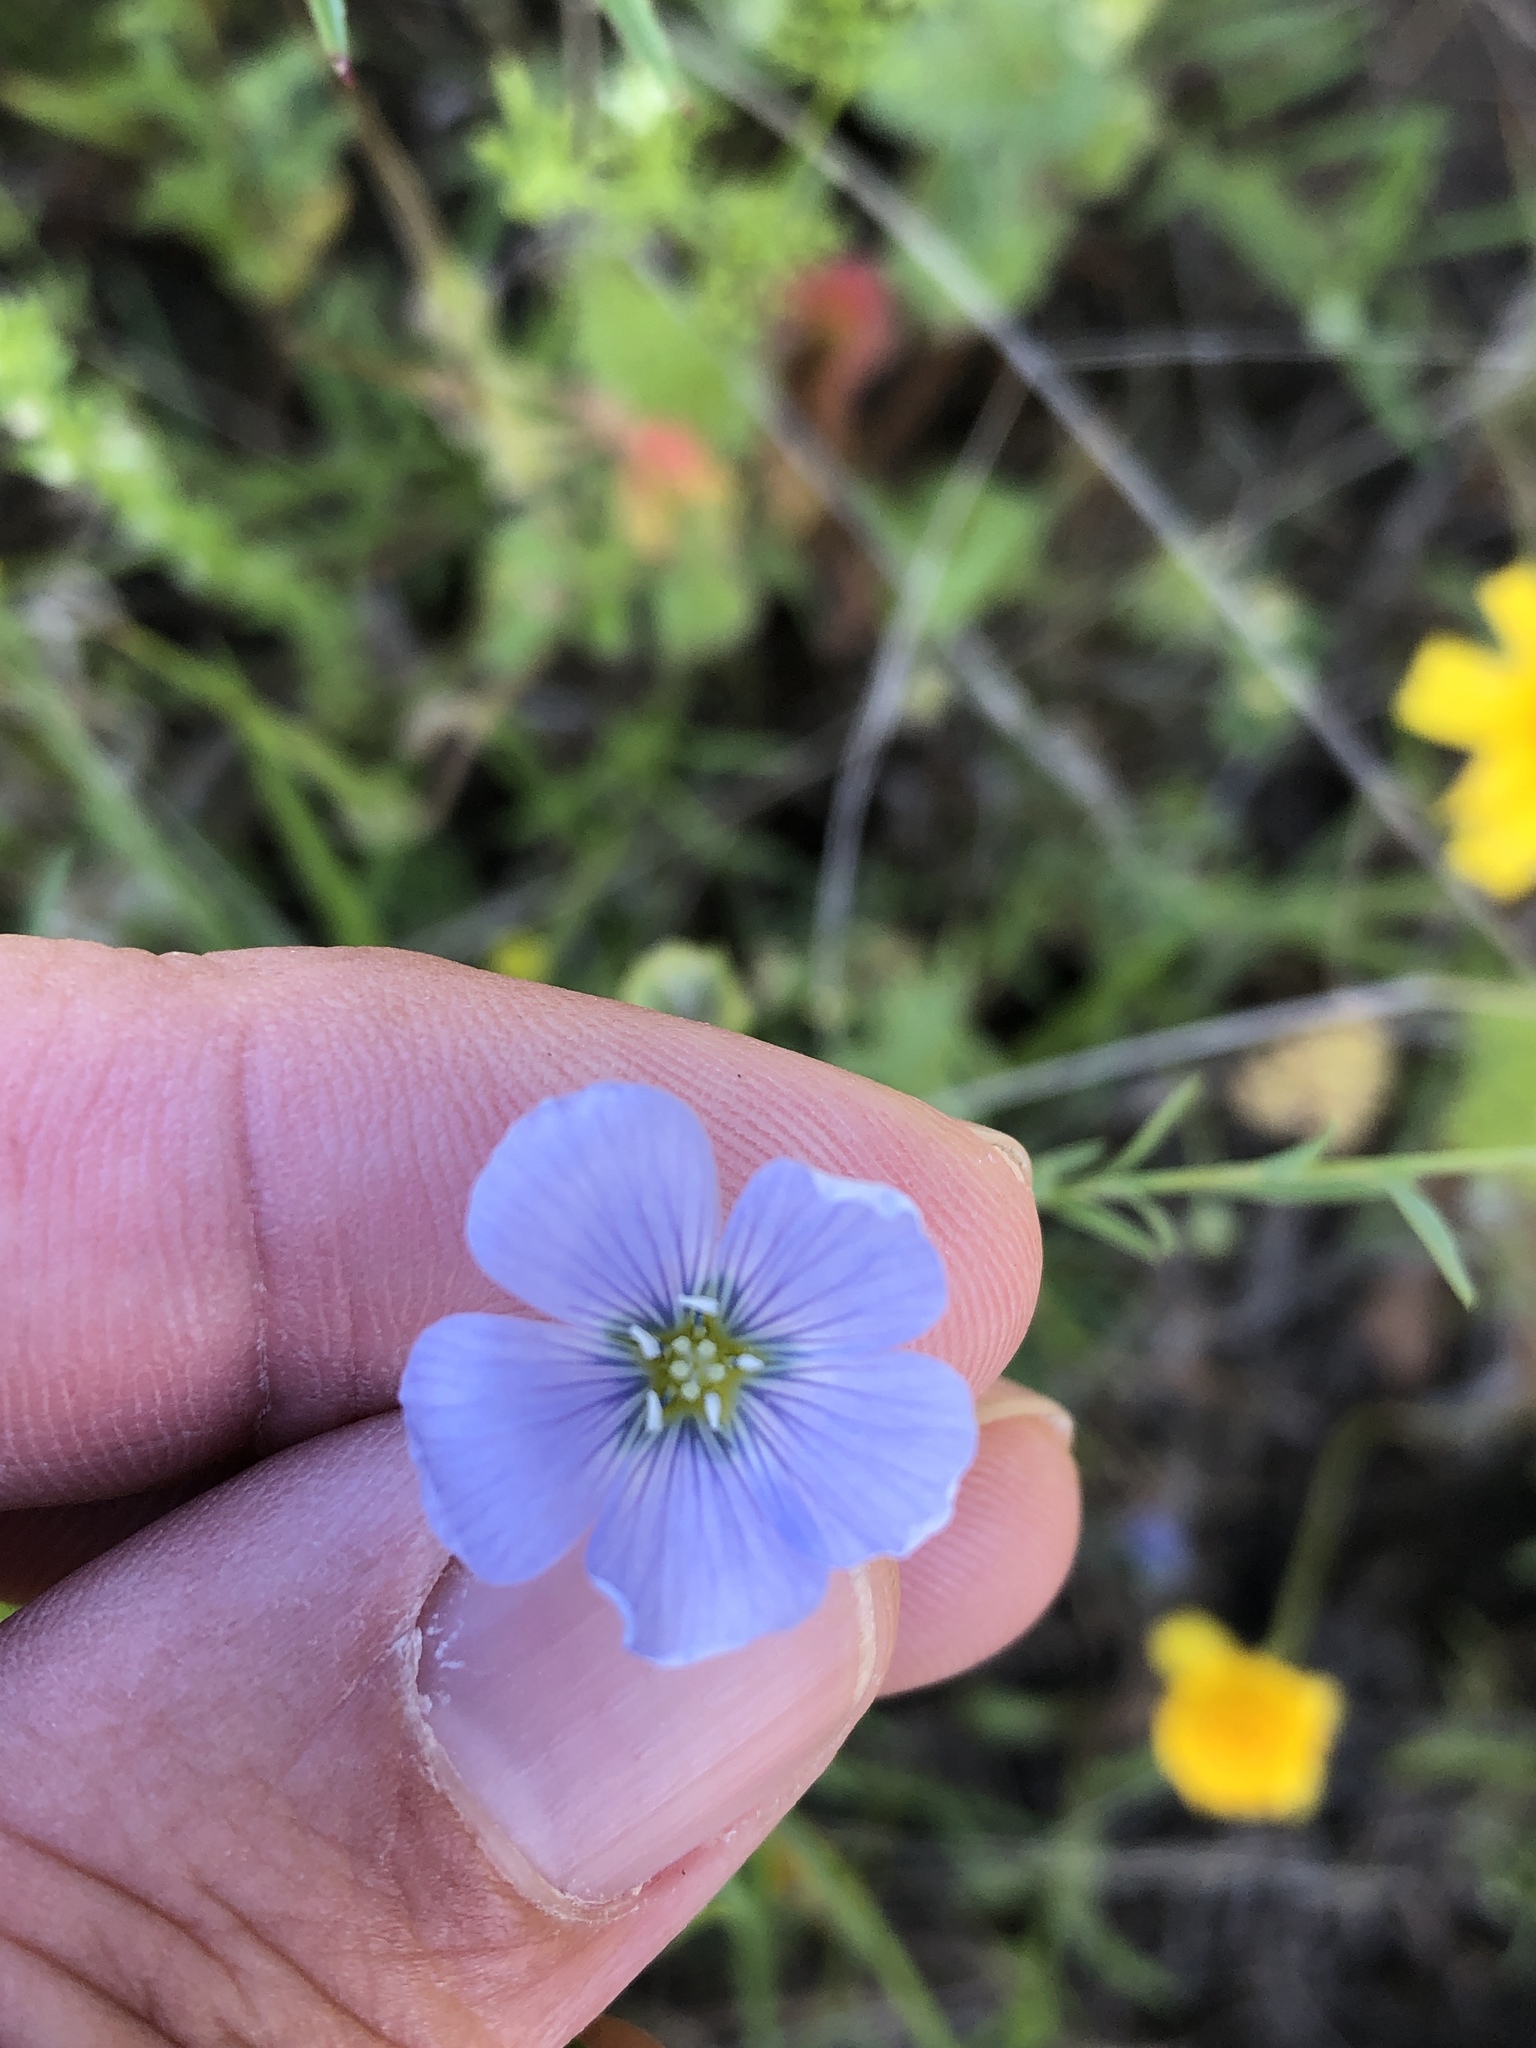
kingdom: Plantae
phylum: Tracheophyta
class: Magnoliopsida
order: Malpighiales
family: Linaceae
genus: Linum
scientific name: Linum pratense
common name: Norton's flax
